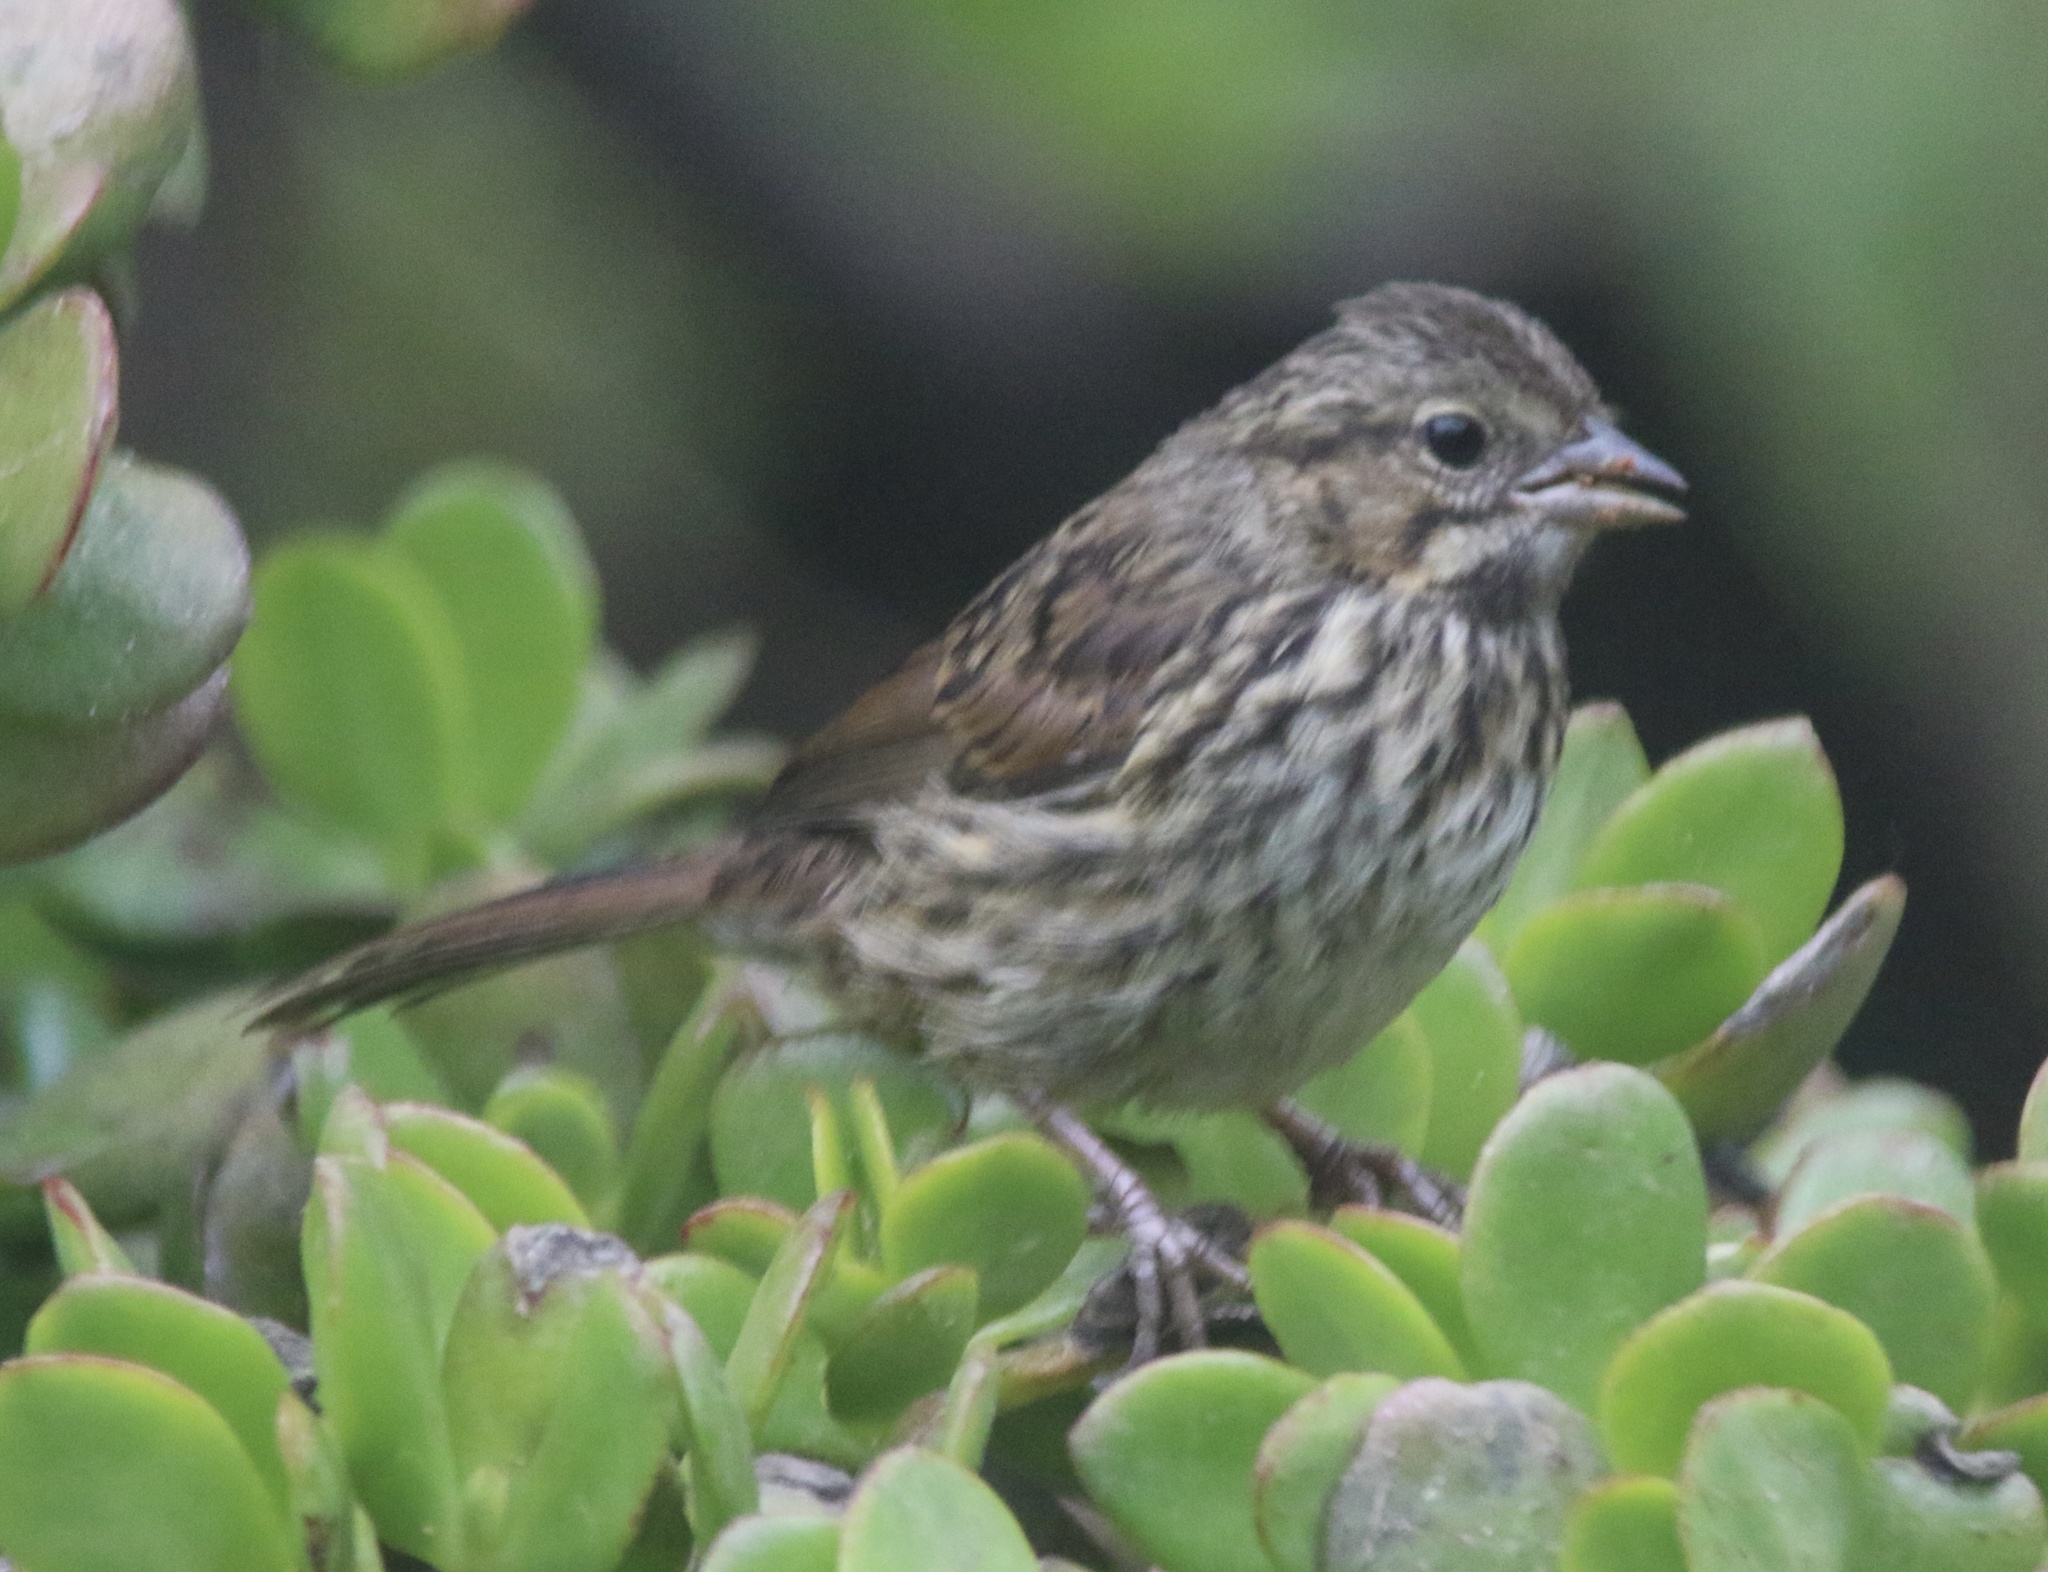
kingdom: Animalia
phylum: Chordata
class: Aves
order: Passeriformes
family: Passerellidae
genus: Melospiza
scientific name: Melospiza melodia
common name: Song sparrow
